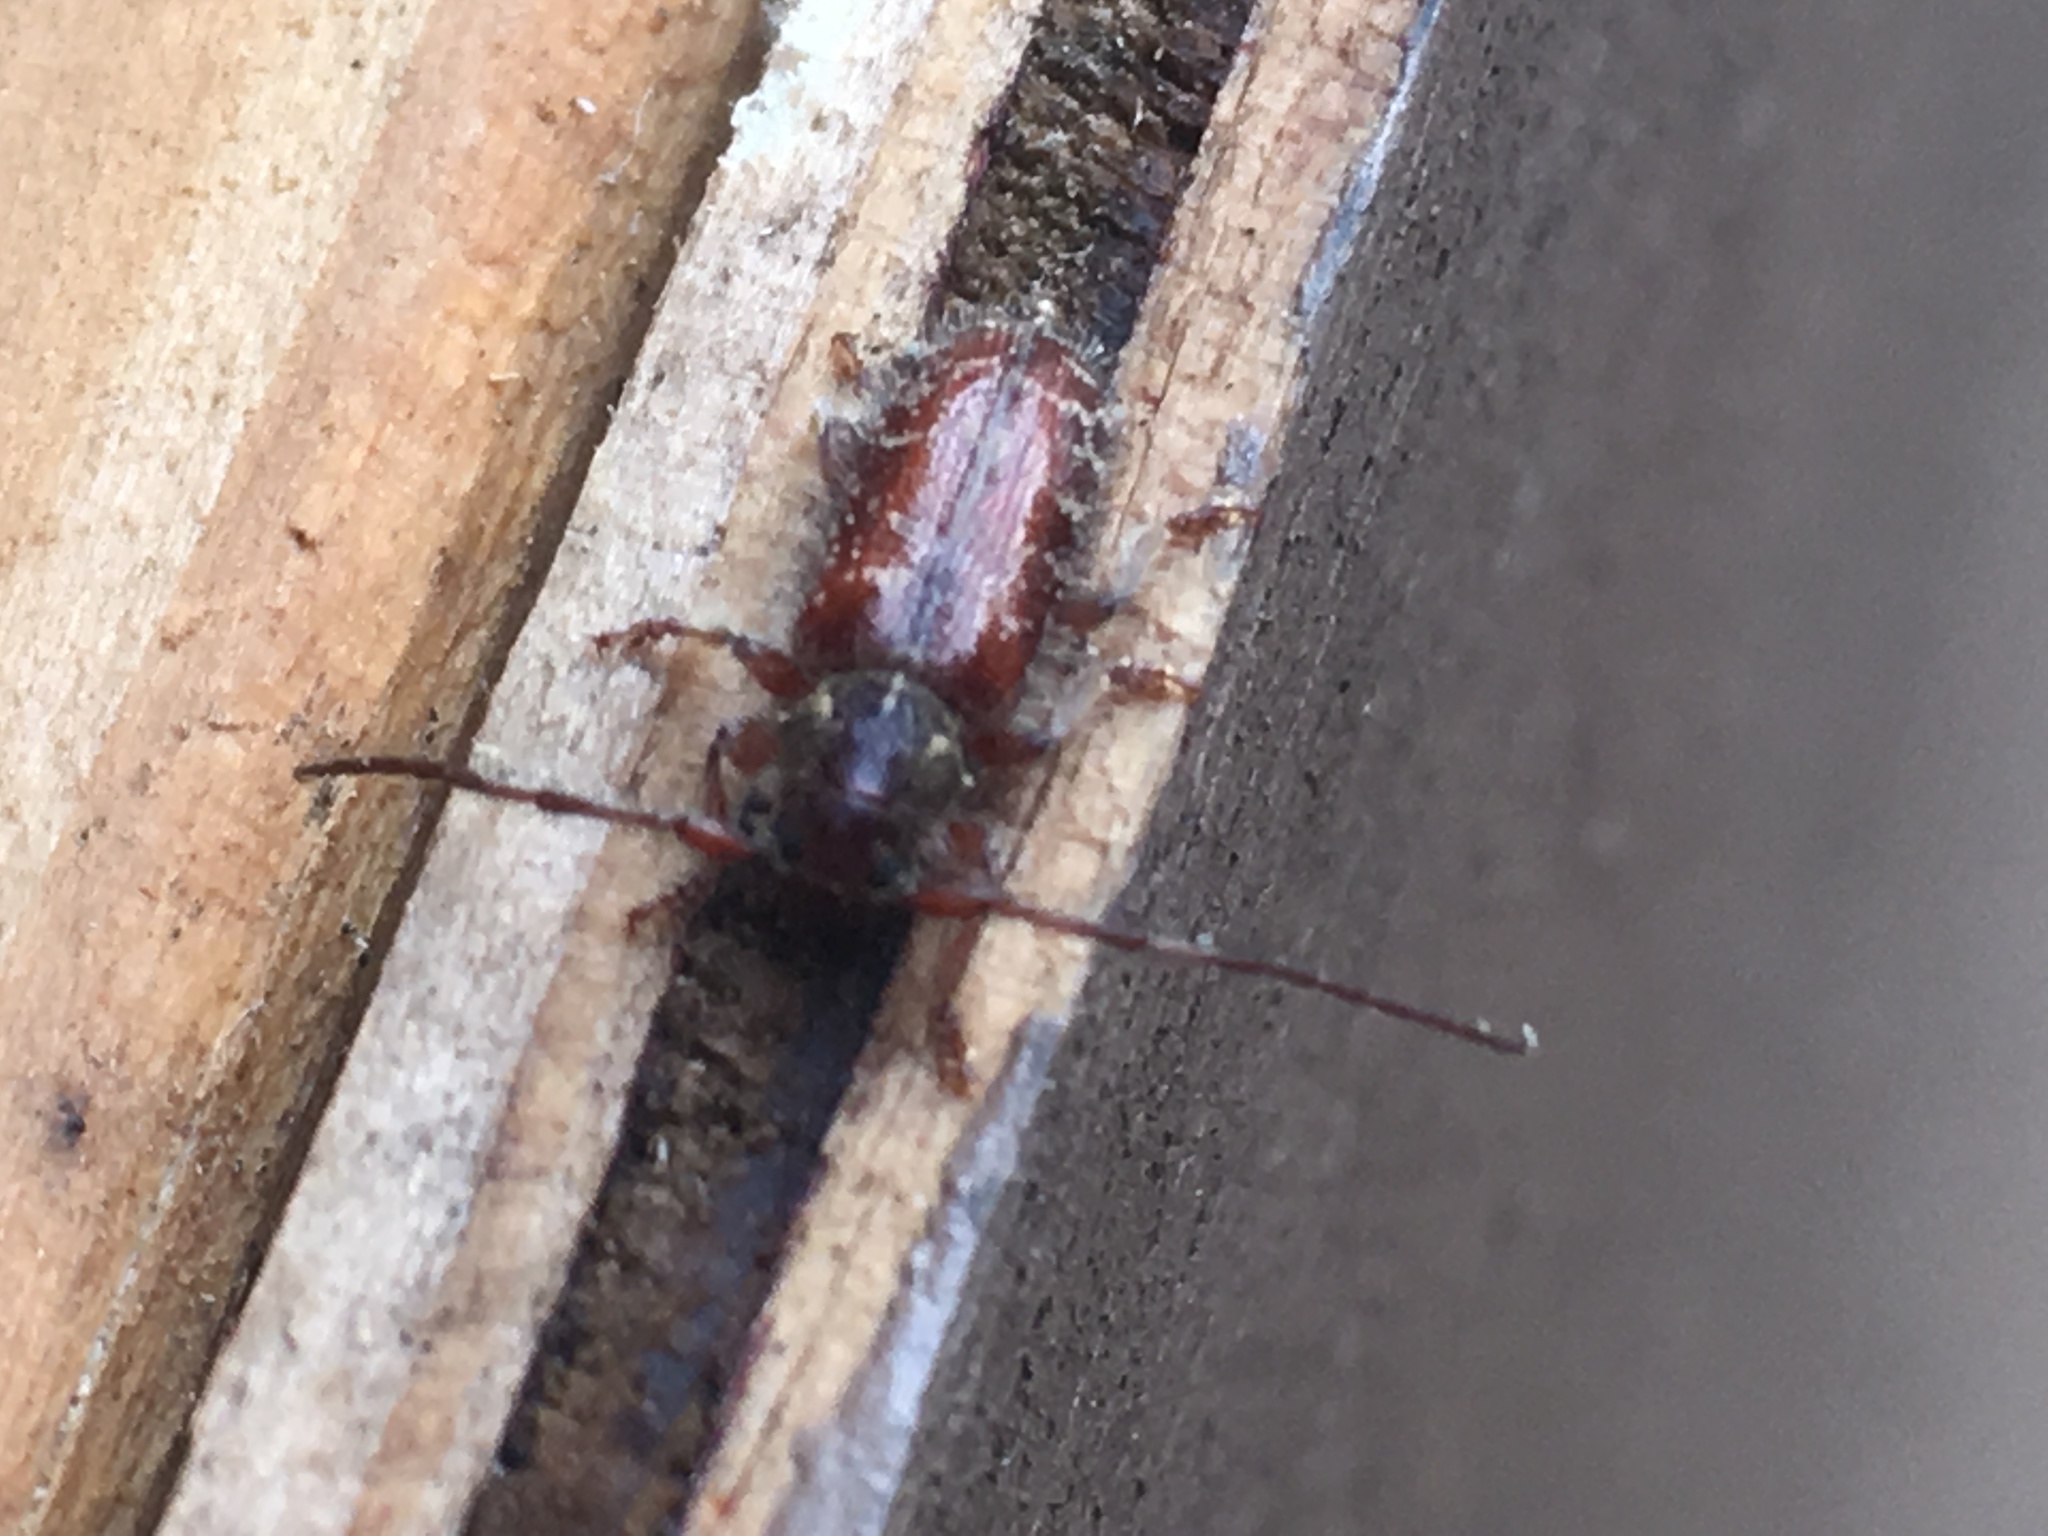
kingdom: Animalia
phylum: Arthropoda
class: Insecta
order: Coleoptera
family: Cerambycidae
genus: Eupogonius
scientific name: Eupogonius tomentosus
